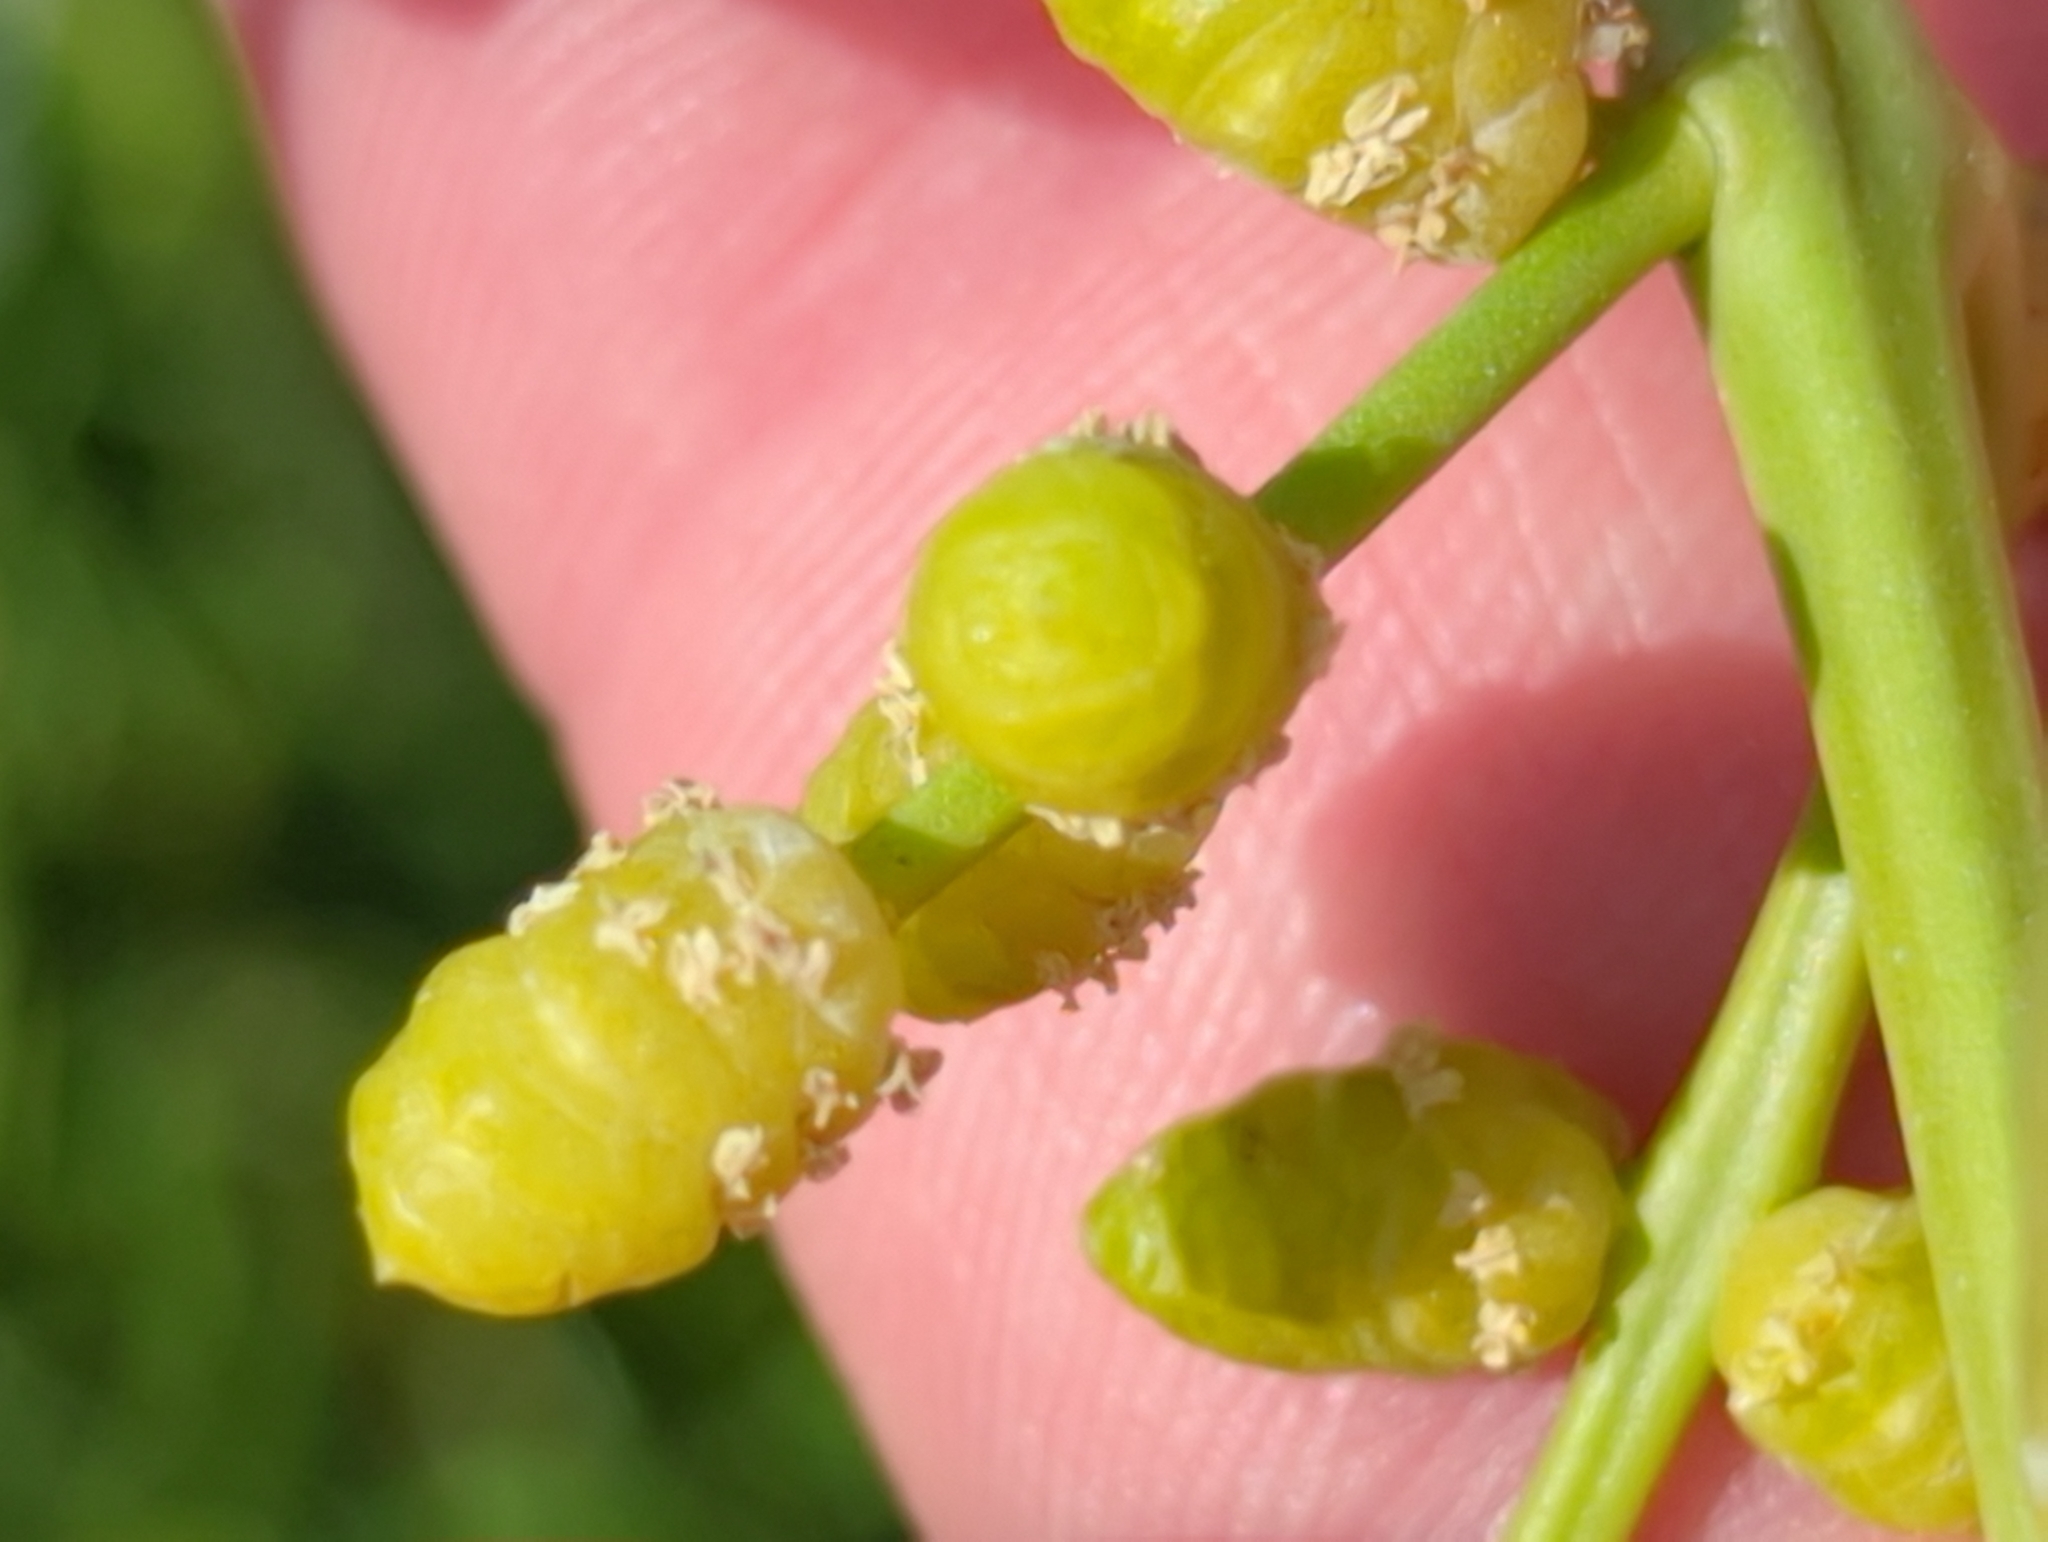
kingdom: Plantae
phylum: Tracheophyta
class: Magnoliopsida
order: Brassicales
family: Bataceae
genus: Batis
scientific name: Batis maritima
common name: Turtleweed
